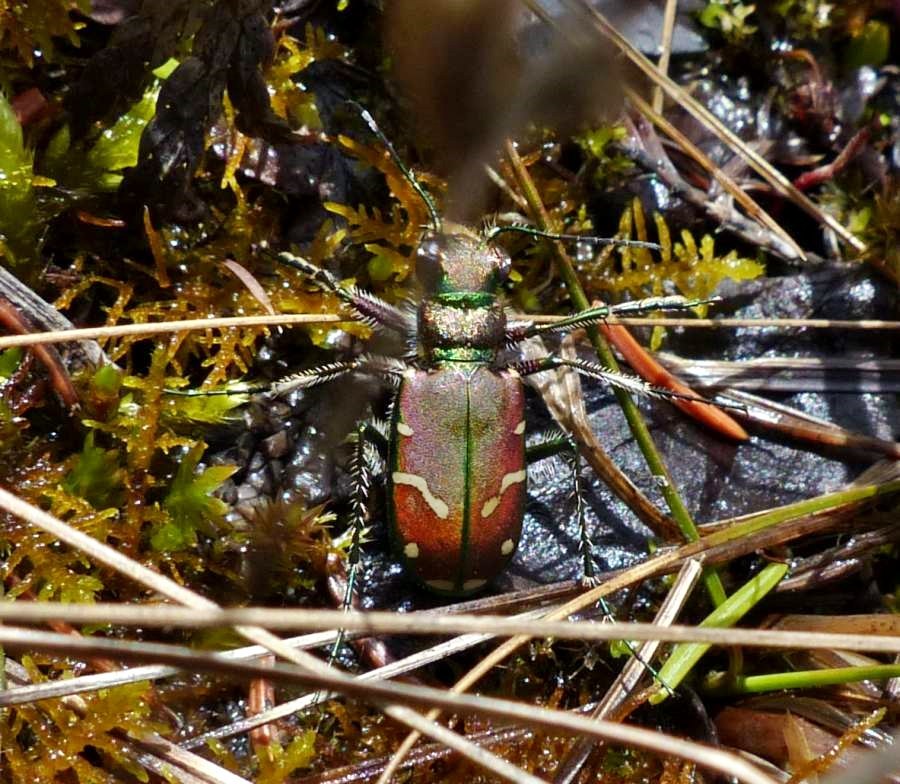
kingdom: Animalia
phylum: Arthropoda
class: Insecta
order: Coleoptera
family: Carabidae
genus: Cicindela
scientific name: Cicindela limbalis
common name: Common claybank tiger beetle
